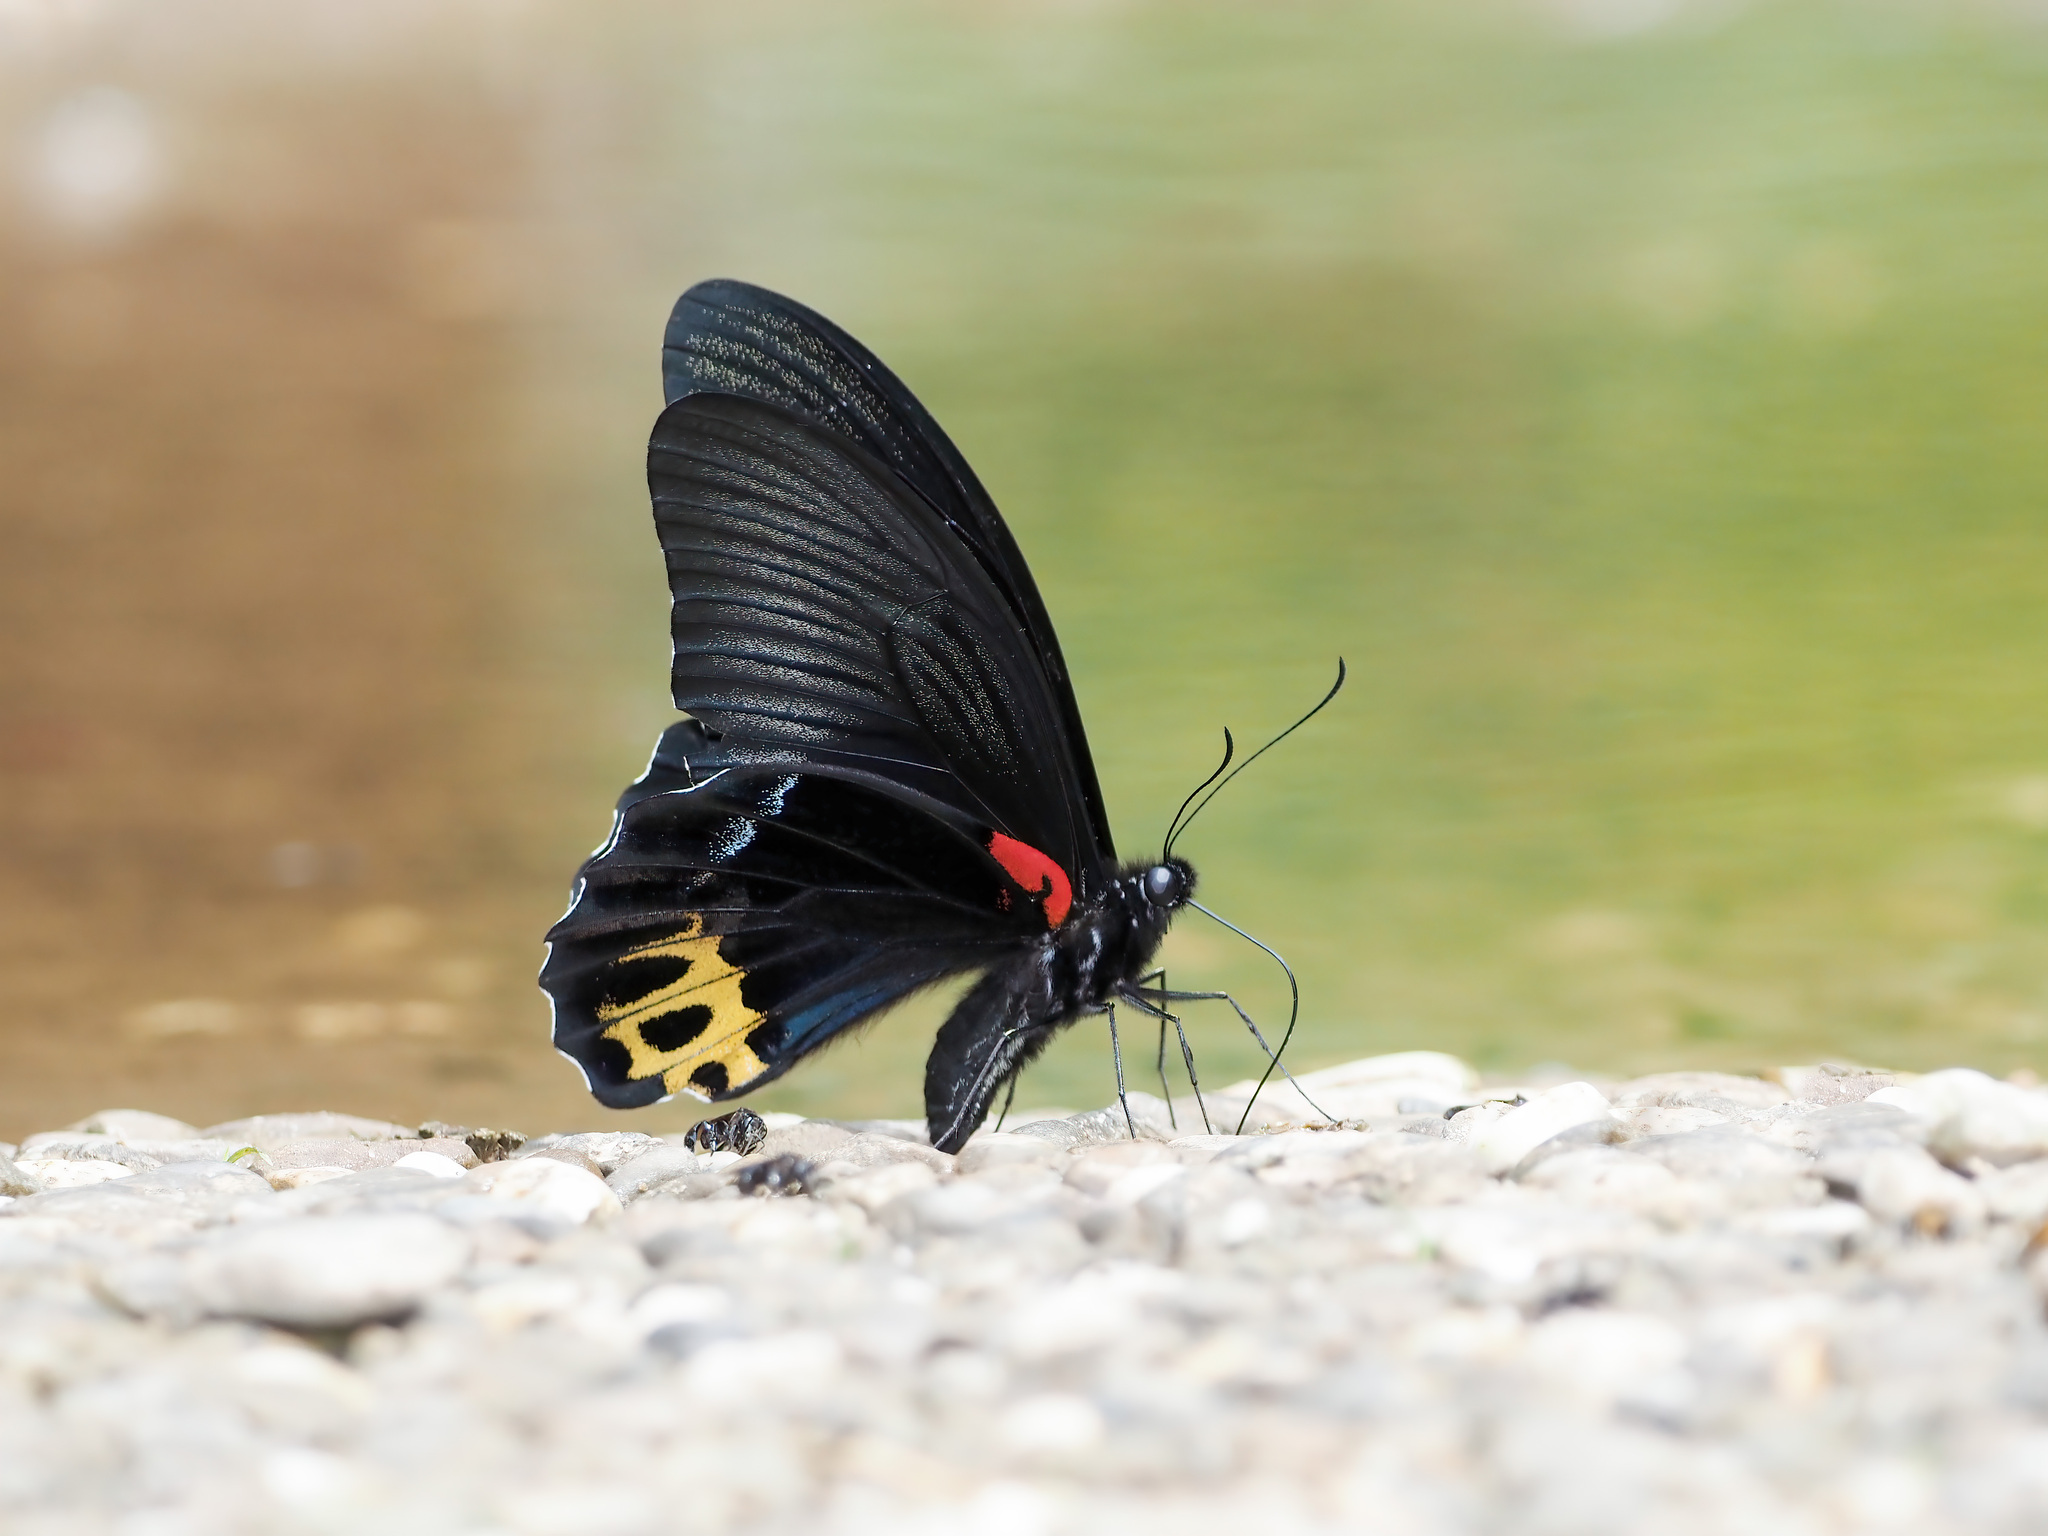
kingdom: Animalia
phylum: Arthropoda
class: Insecta
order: Lepidoptera
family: Papilionidae
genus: Papilio
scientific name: Papilio acheron
